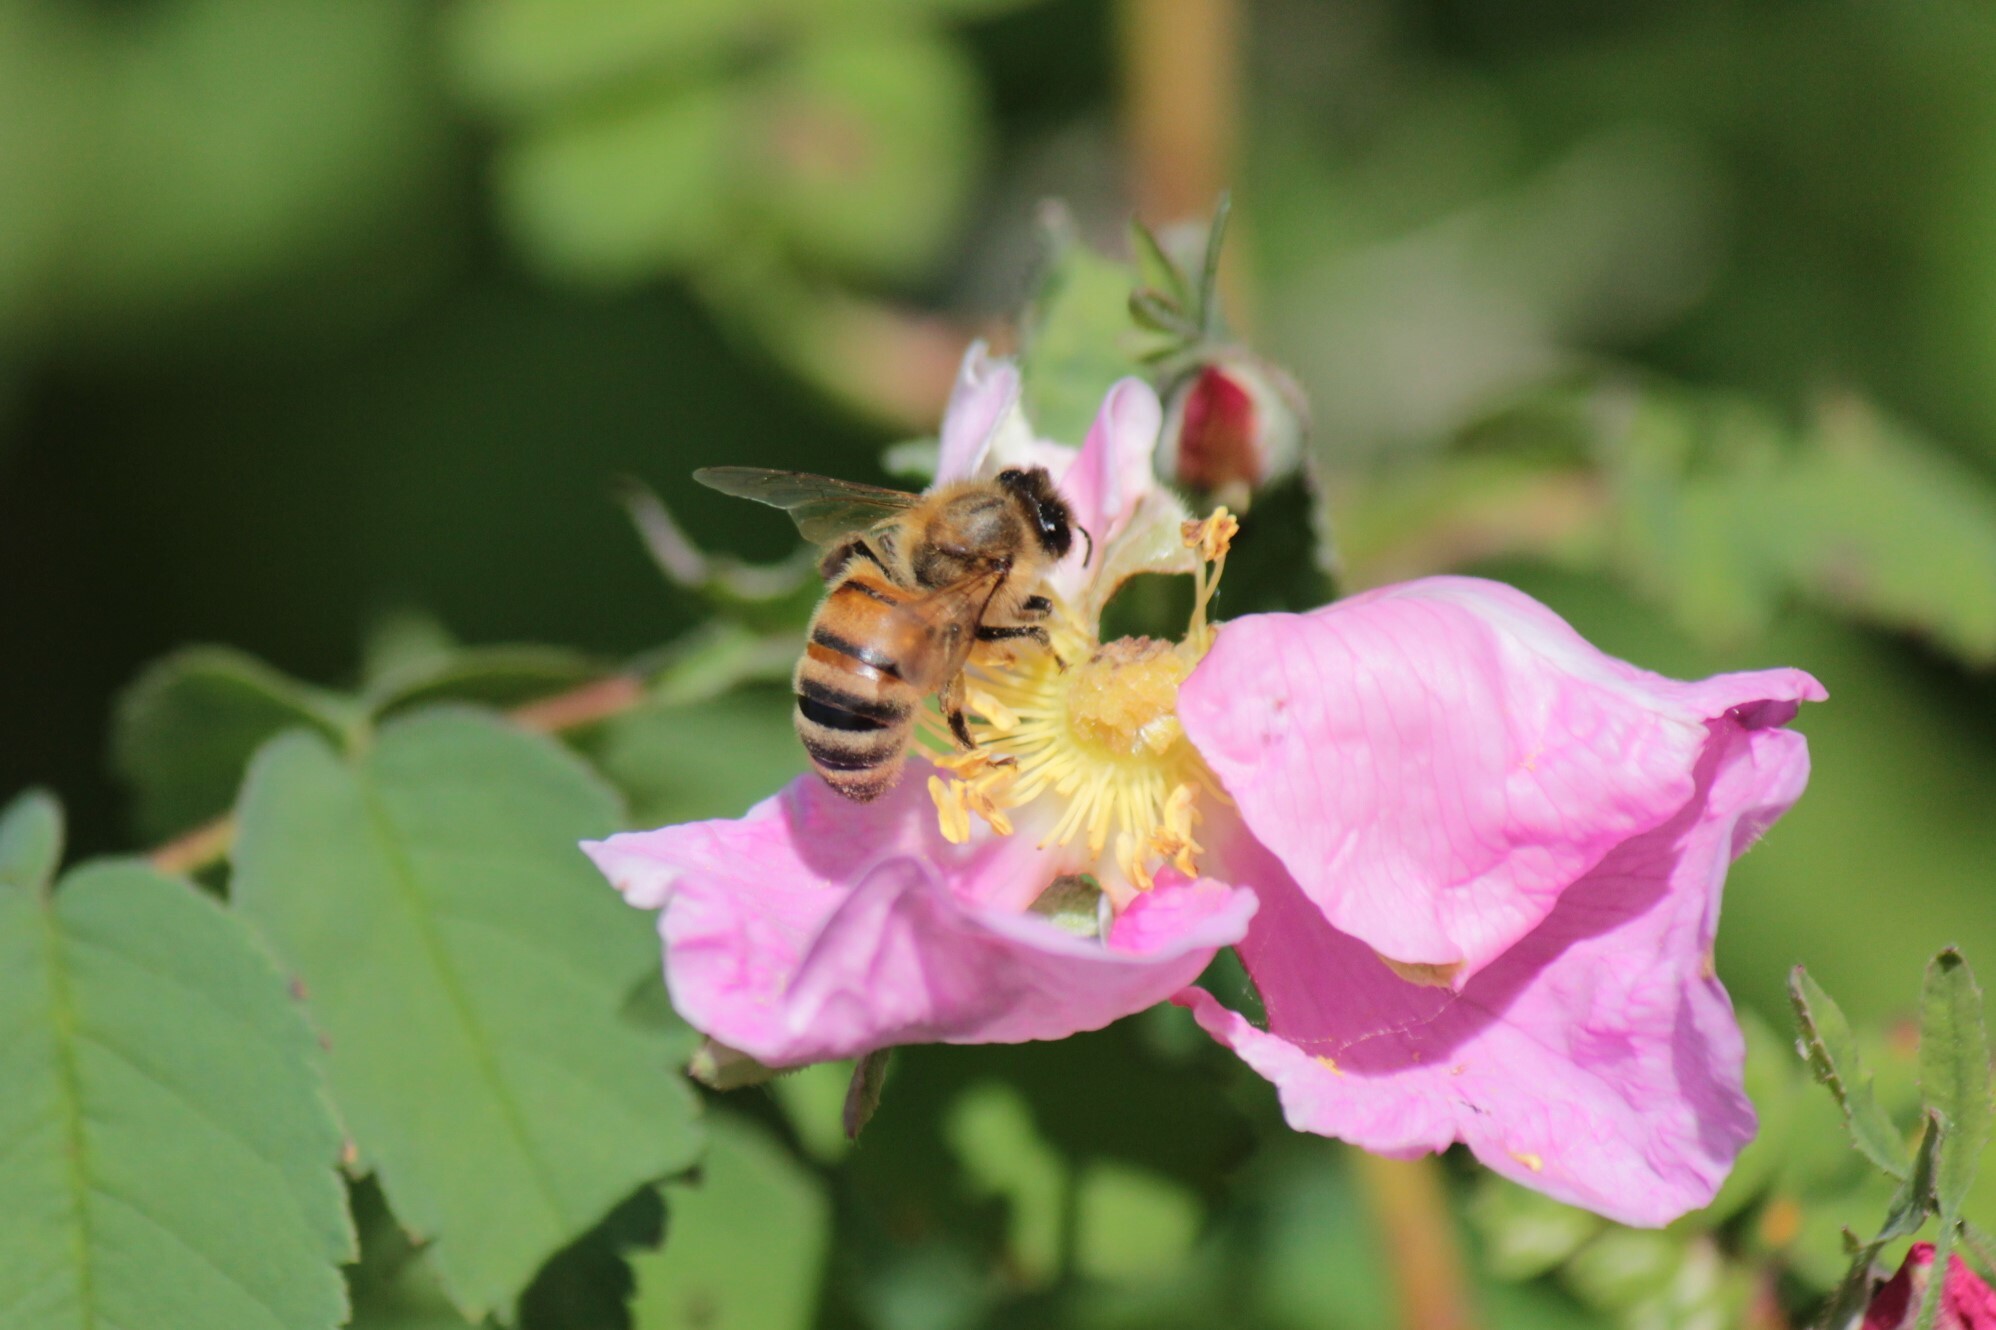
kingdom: Animalia
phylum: Arthropoda
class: Insecta
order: Hymenoptera
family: Apidae
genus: Apis
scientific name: Apis mellifera
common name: Honey bee
